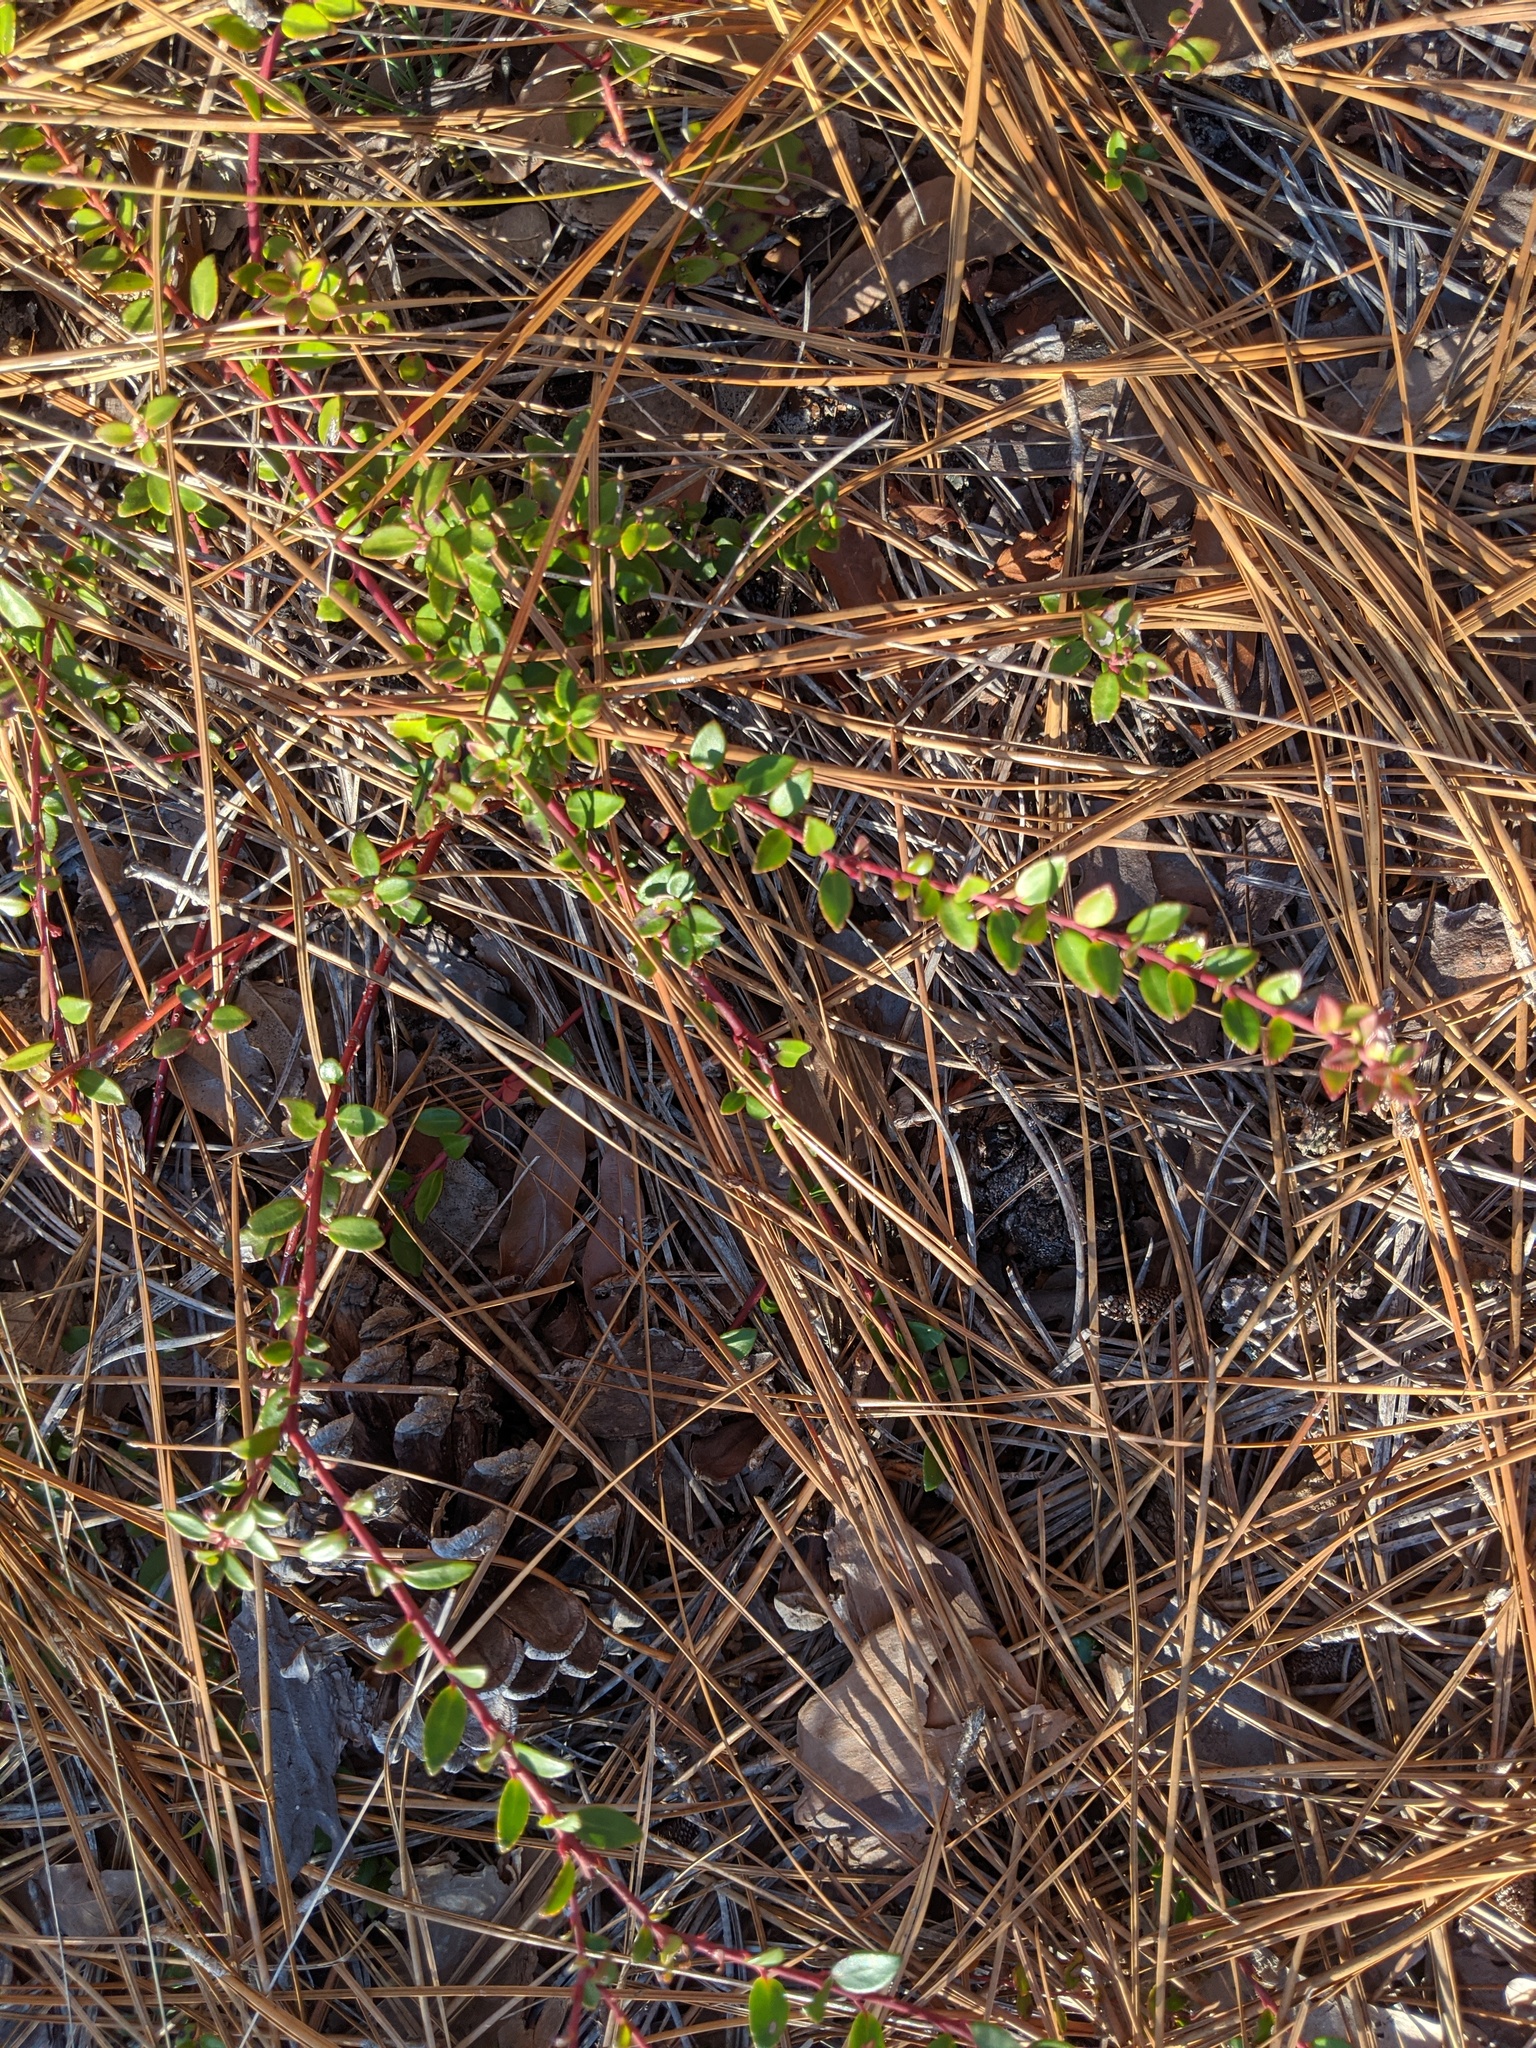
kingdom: Plantae
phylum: Tracheophyta
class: Magnoliopsida
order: Ericales
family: Ericaceae
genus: Vaccinium
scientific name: Vaccinium crassifolium
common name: Creeping blueberry
